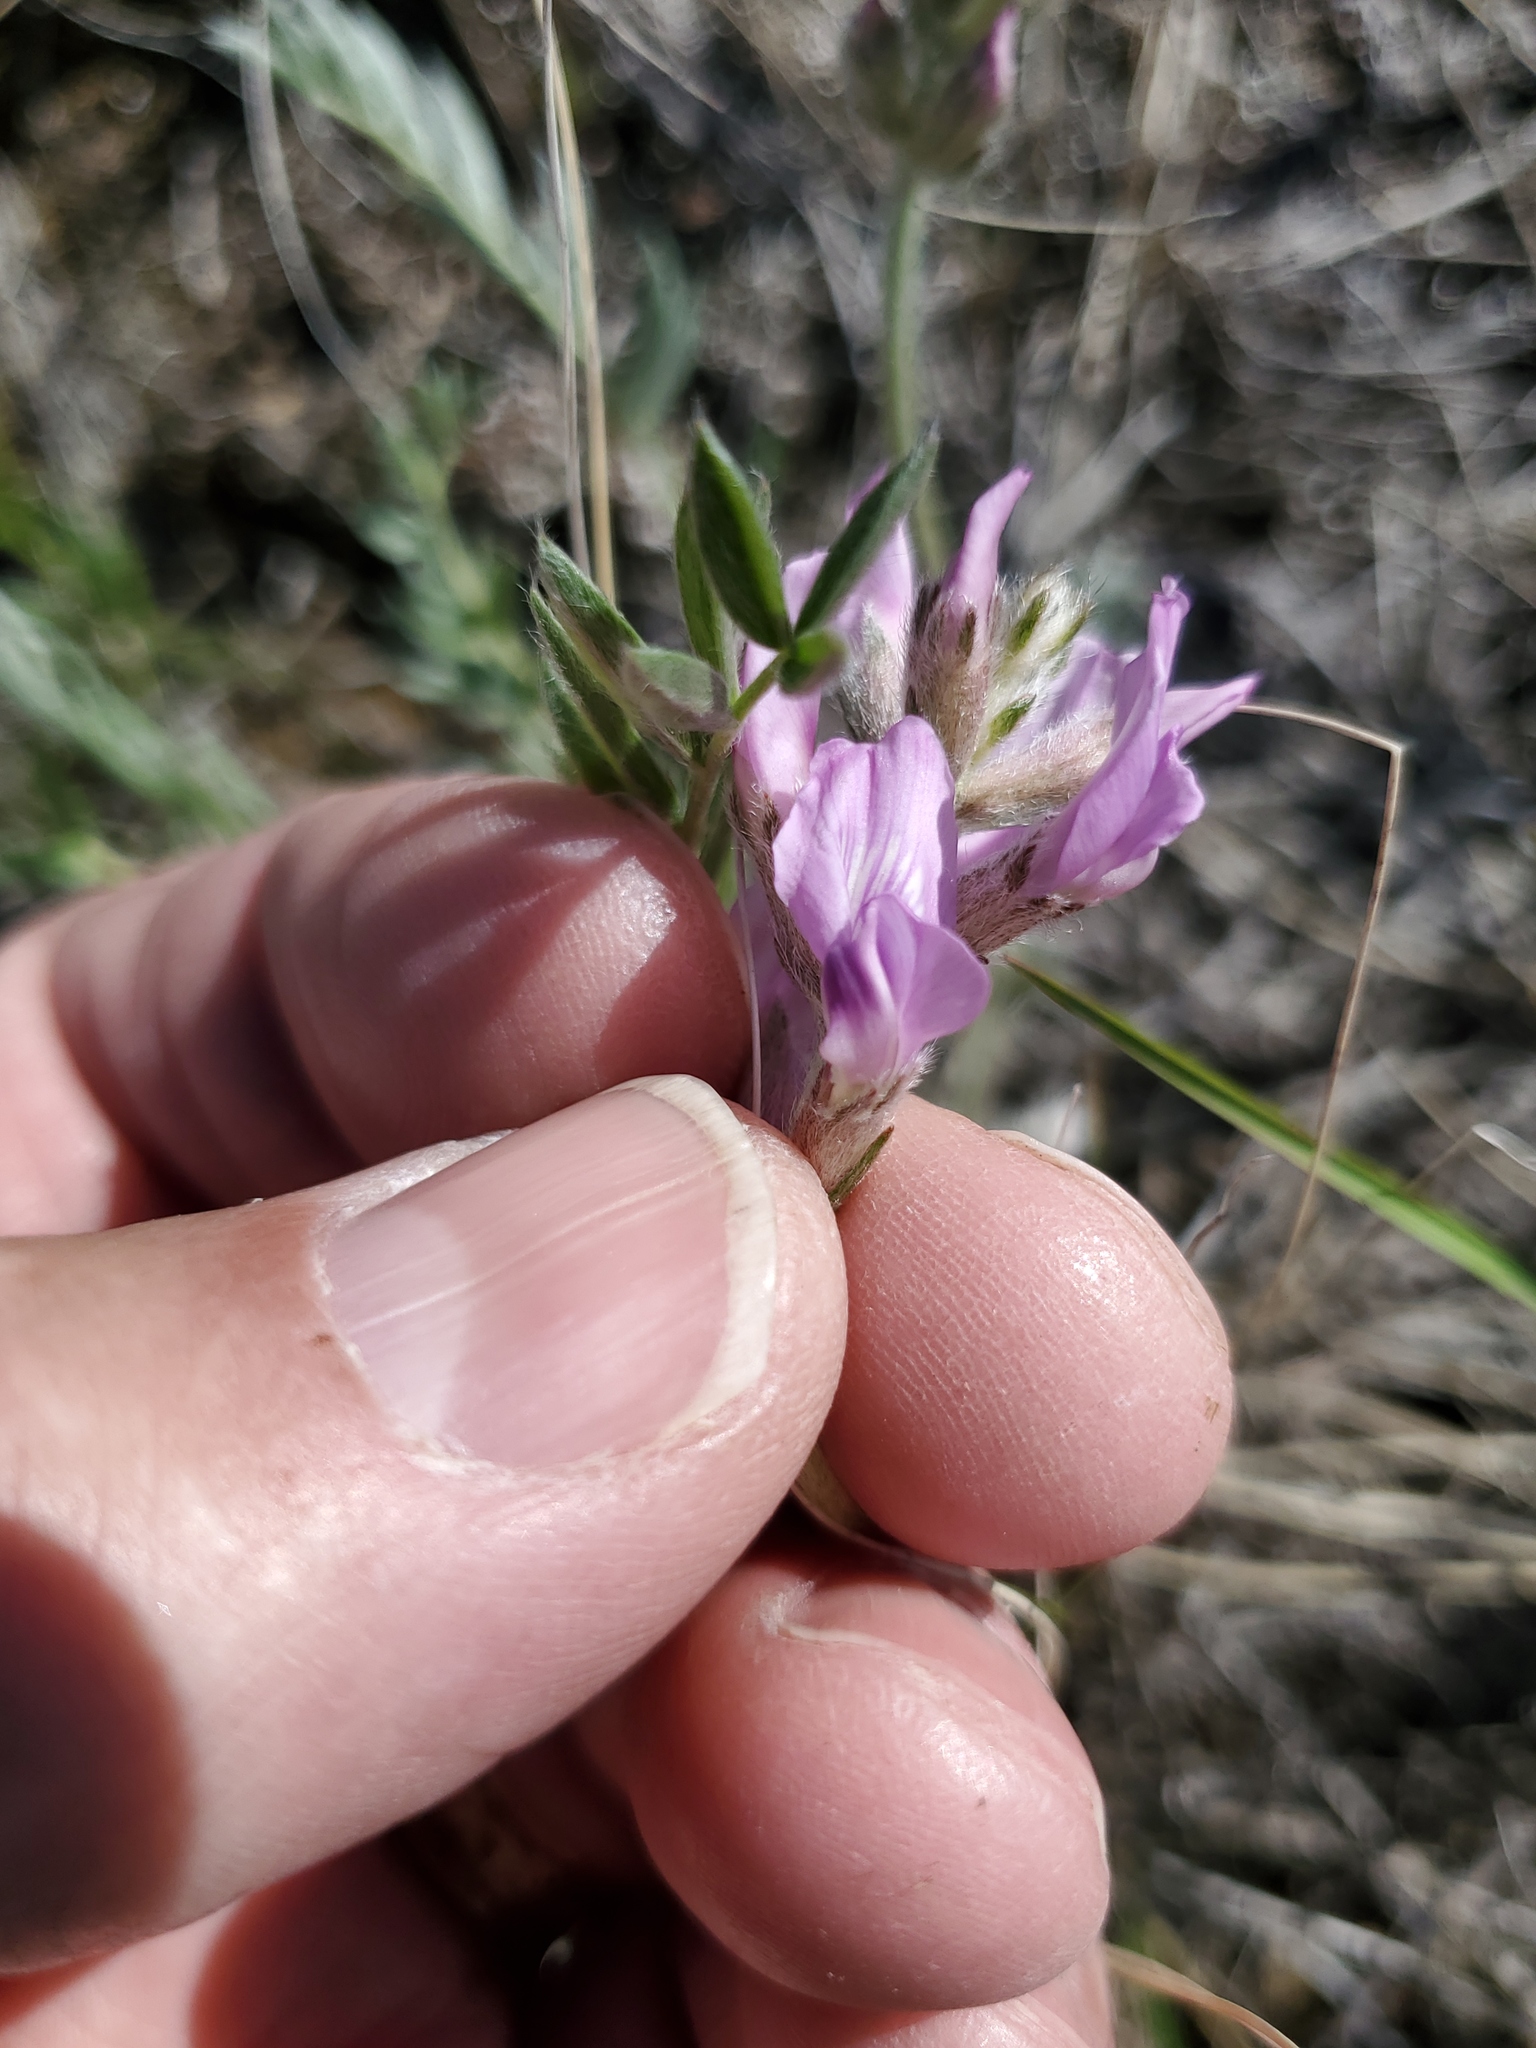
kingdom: Plantae
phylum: Tracheophyta
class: Magnoliopsida
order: Fabales
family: Fabaceae
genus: Oxytropis
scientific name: Oxytropis lambertii
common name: Purple locoweed
